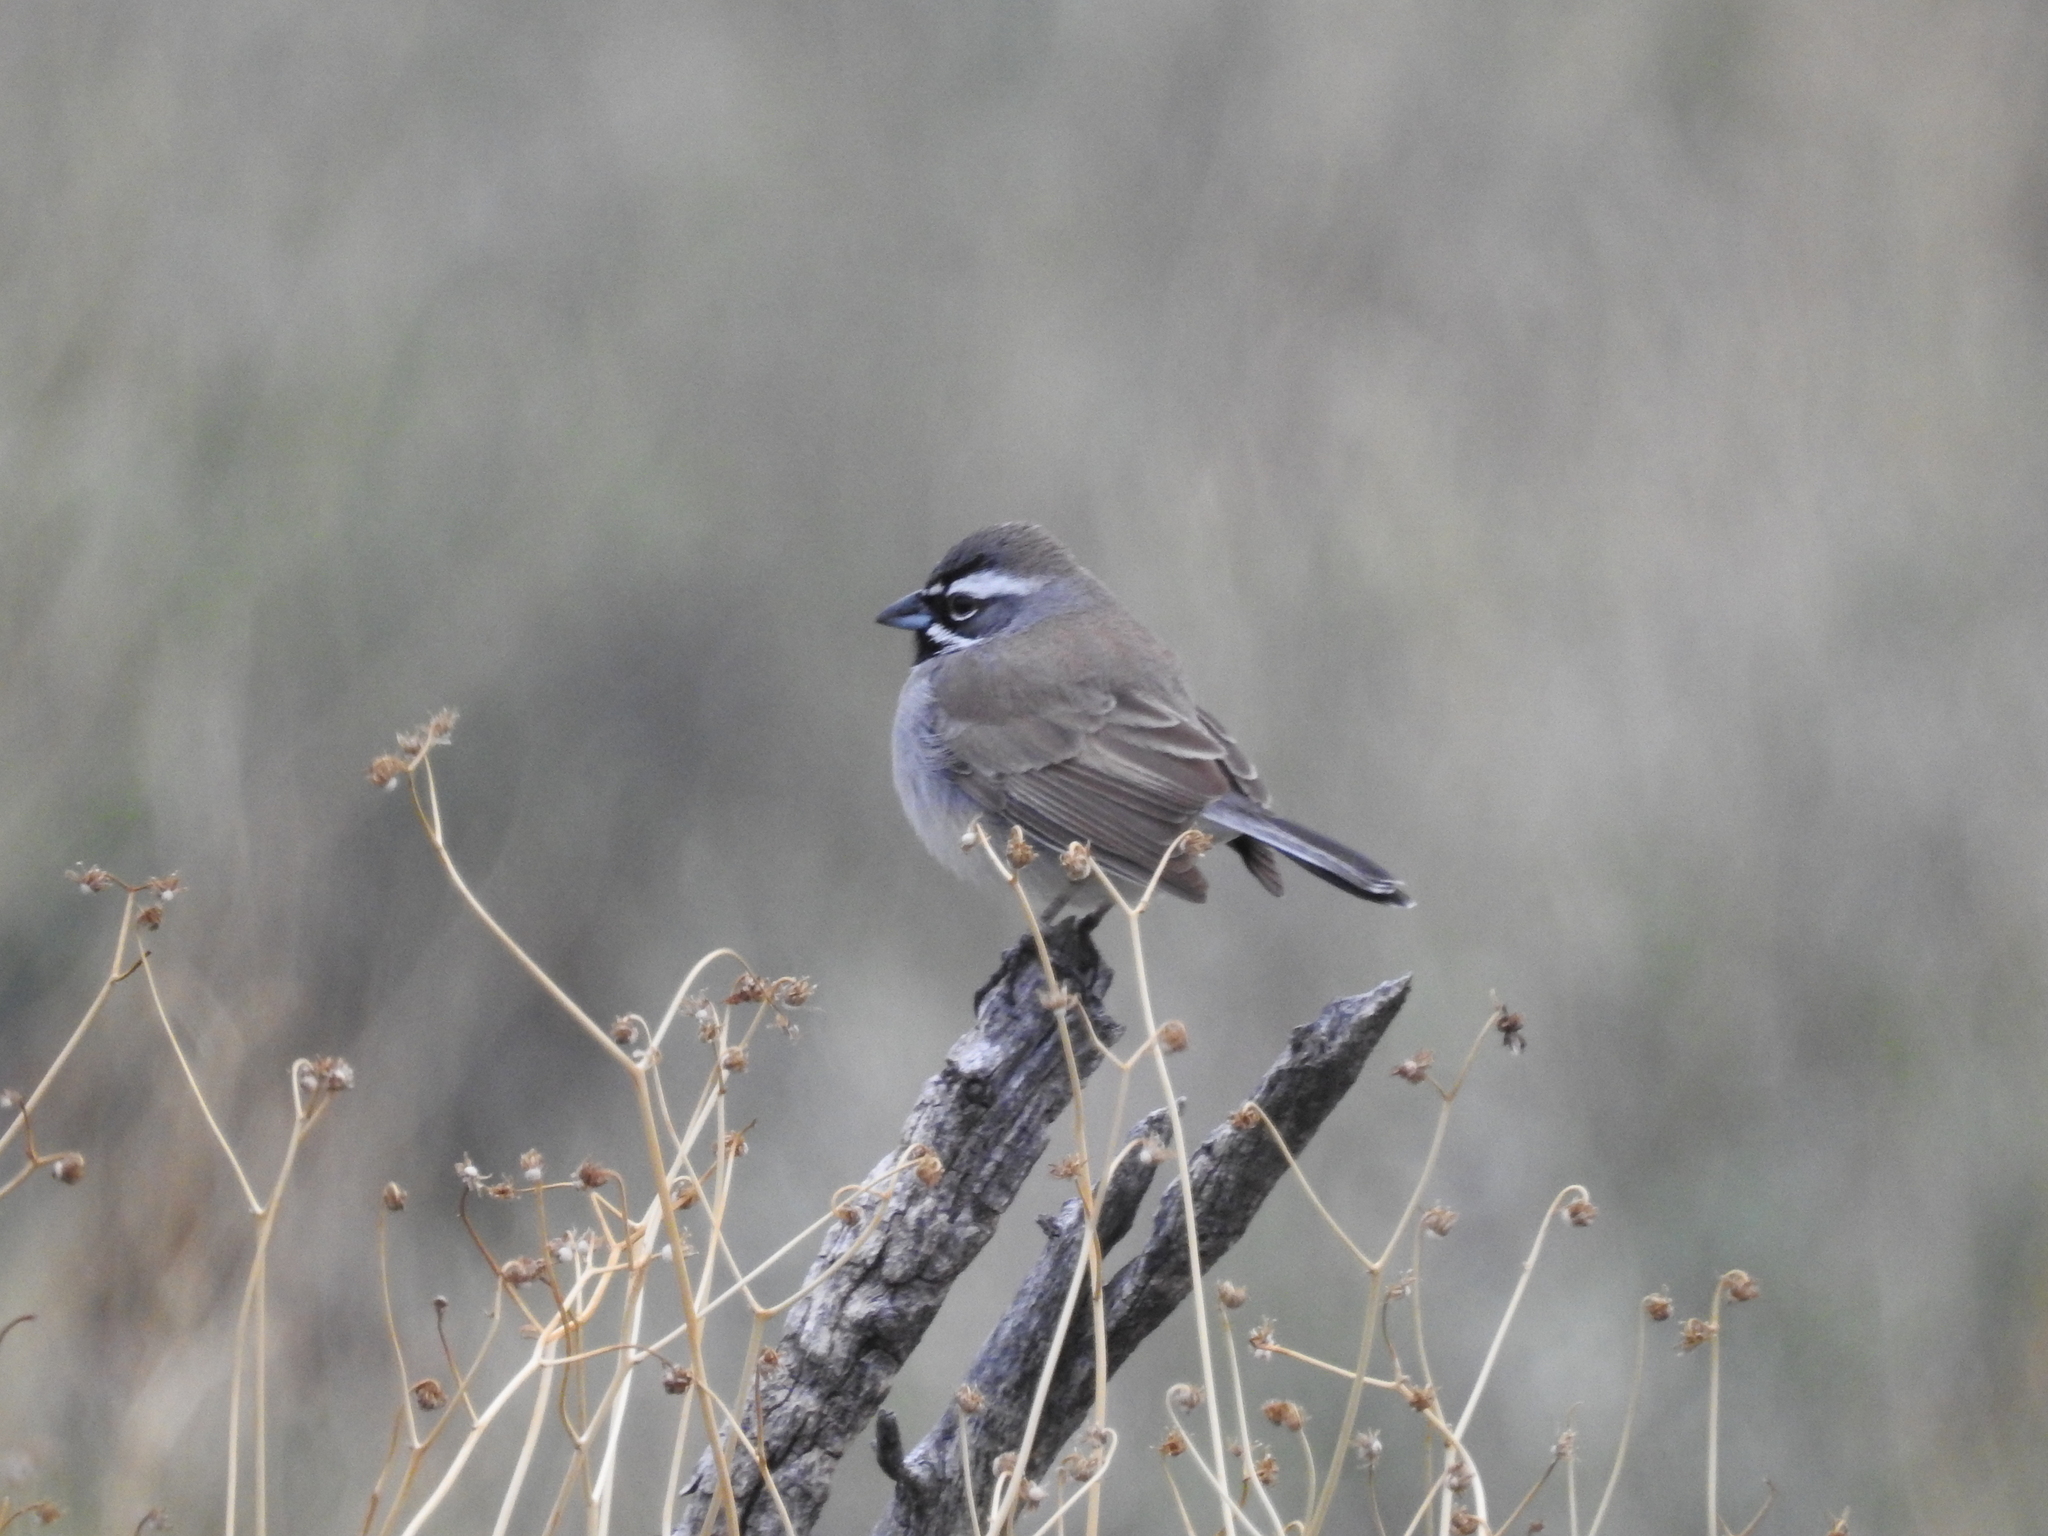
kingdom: Animalia
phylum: Chordata
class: Aves
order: Passeriformes
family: Passerellidae
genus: Amphispiza
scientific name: Amphispiza bilineata
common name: Black-throated sparrow
